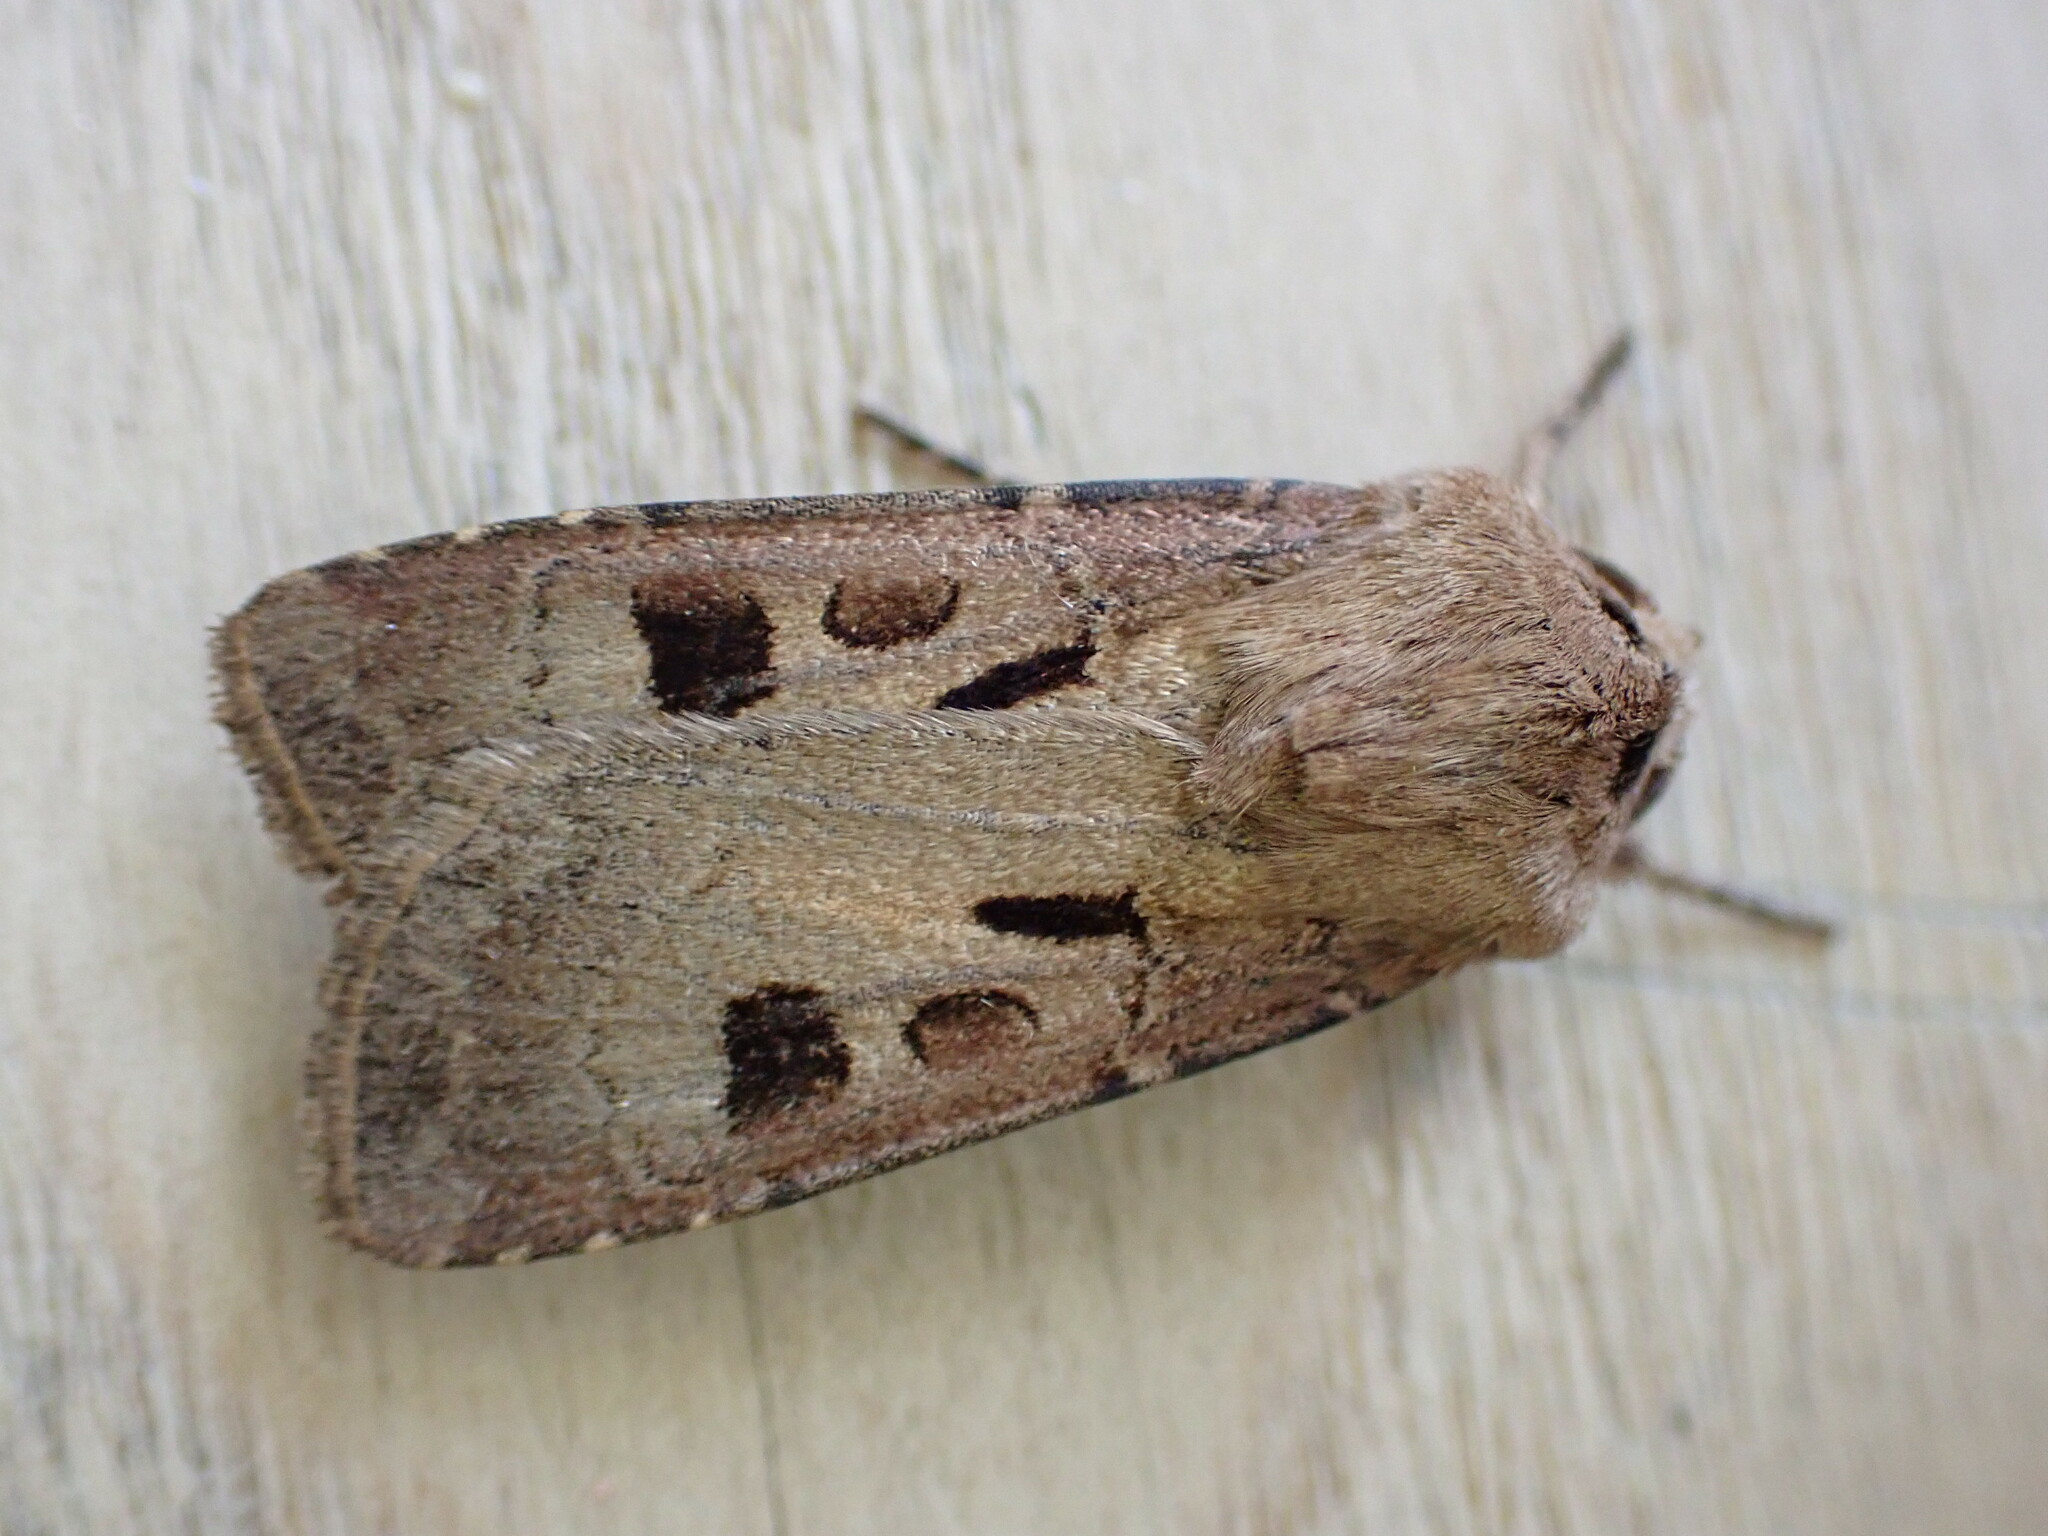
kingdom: Animalia
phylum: Arthropoda
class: Insecta
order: Lepidoptera
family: Noctuidae
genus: Agrotis
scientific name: Agrotis exclamationis
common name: Heart and dart
